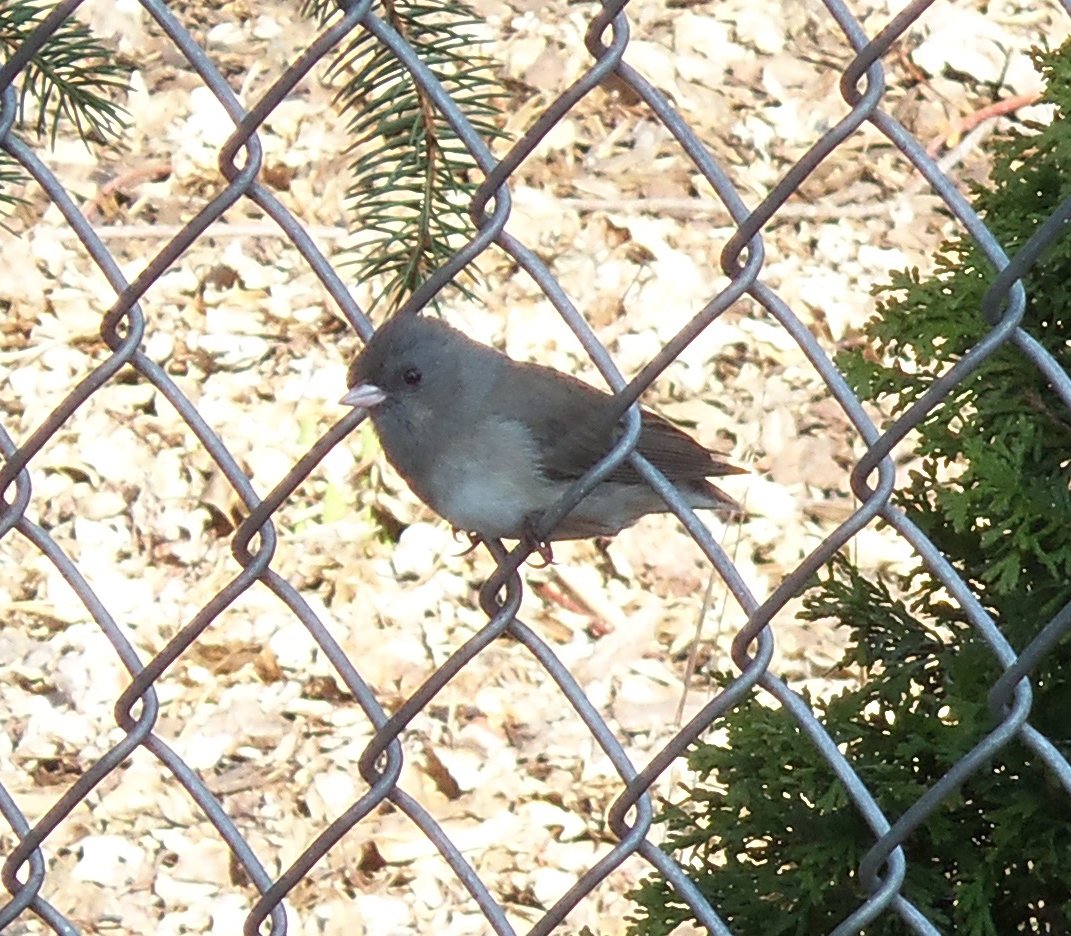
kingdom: Animalia
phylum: Chordata
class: Aves
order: Passeriformes
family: Passerellidae
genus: Junco
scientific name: Junco hyemalis
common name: Dark-eyed junco
